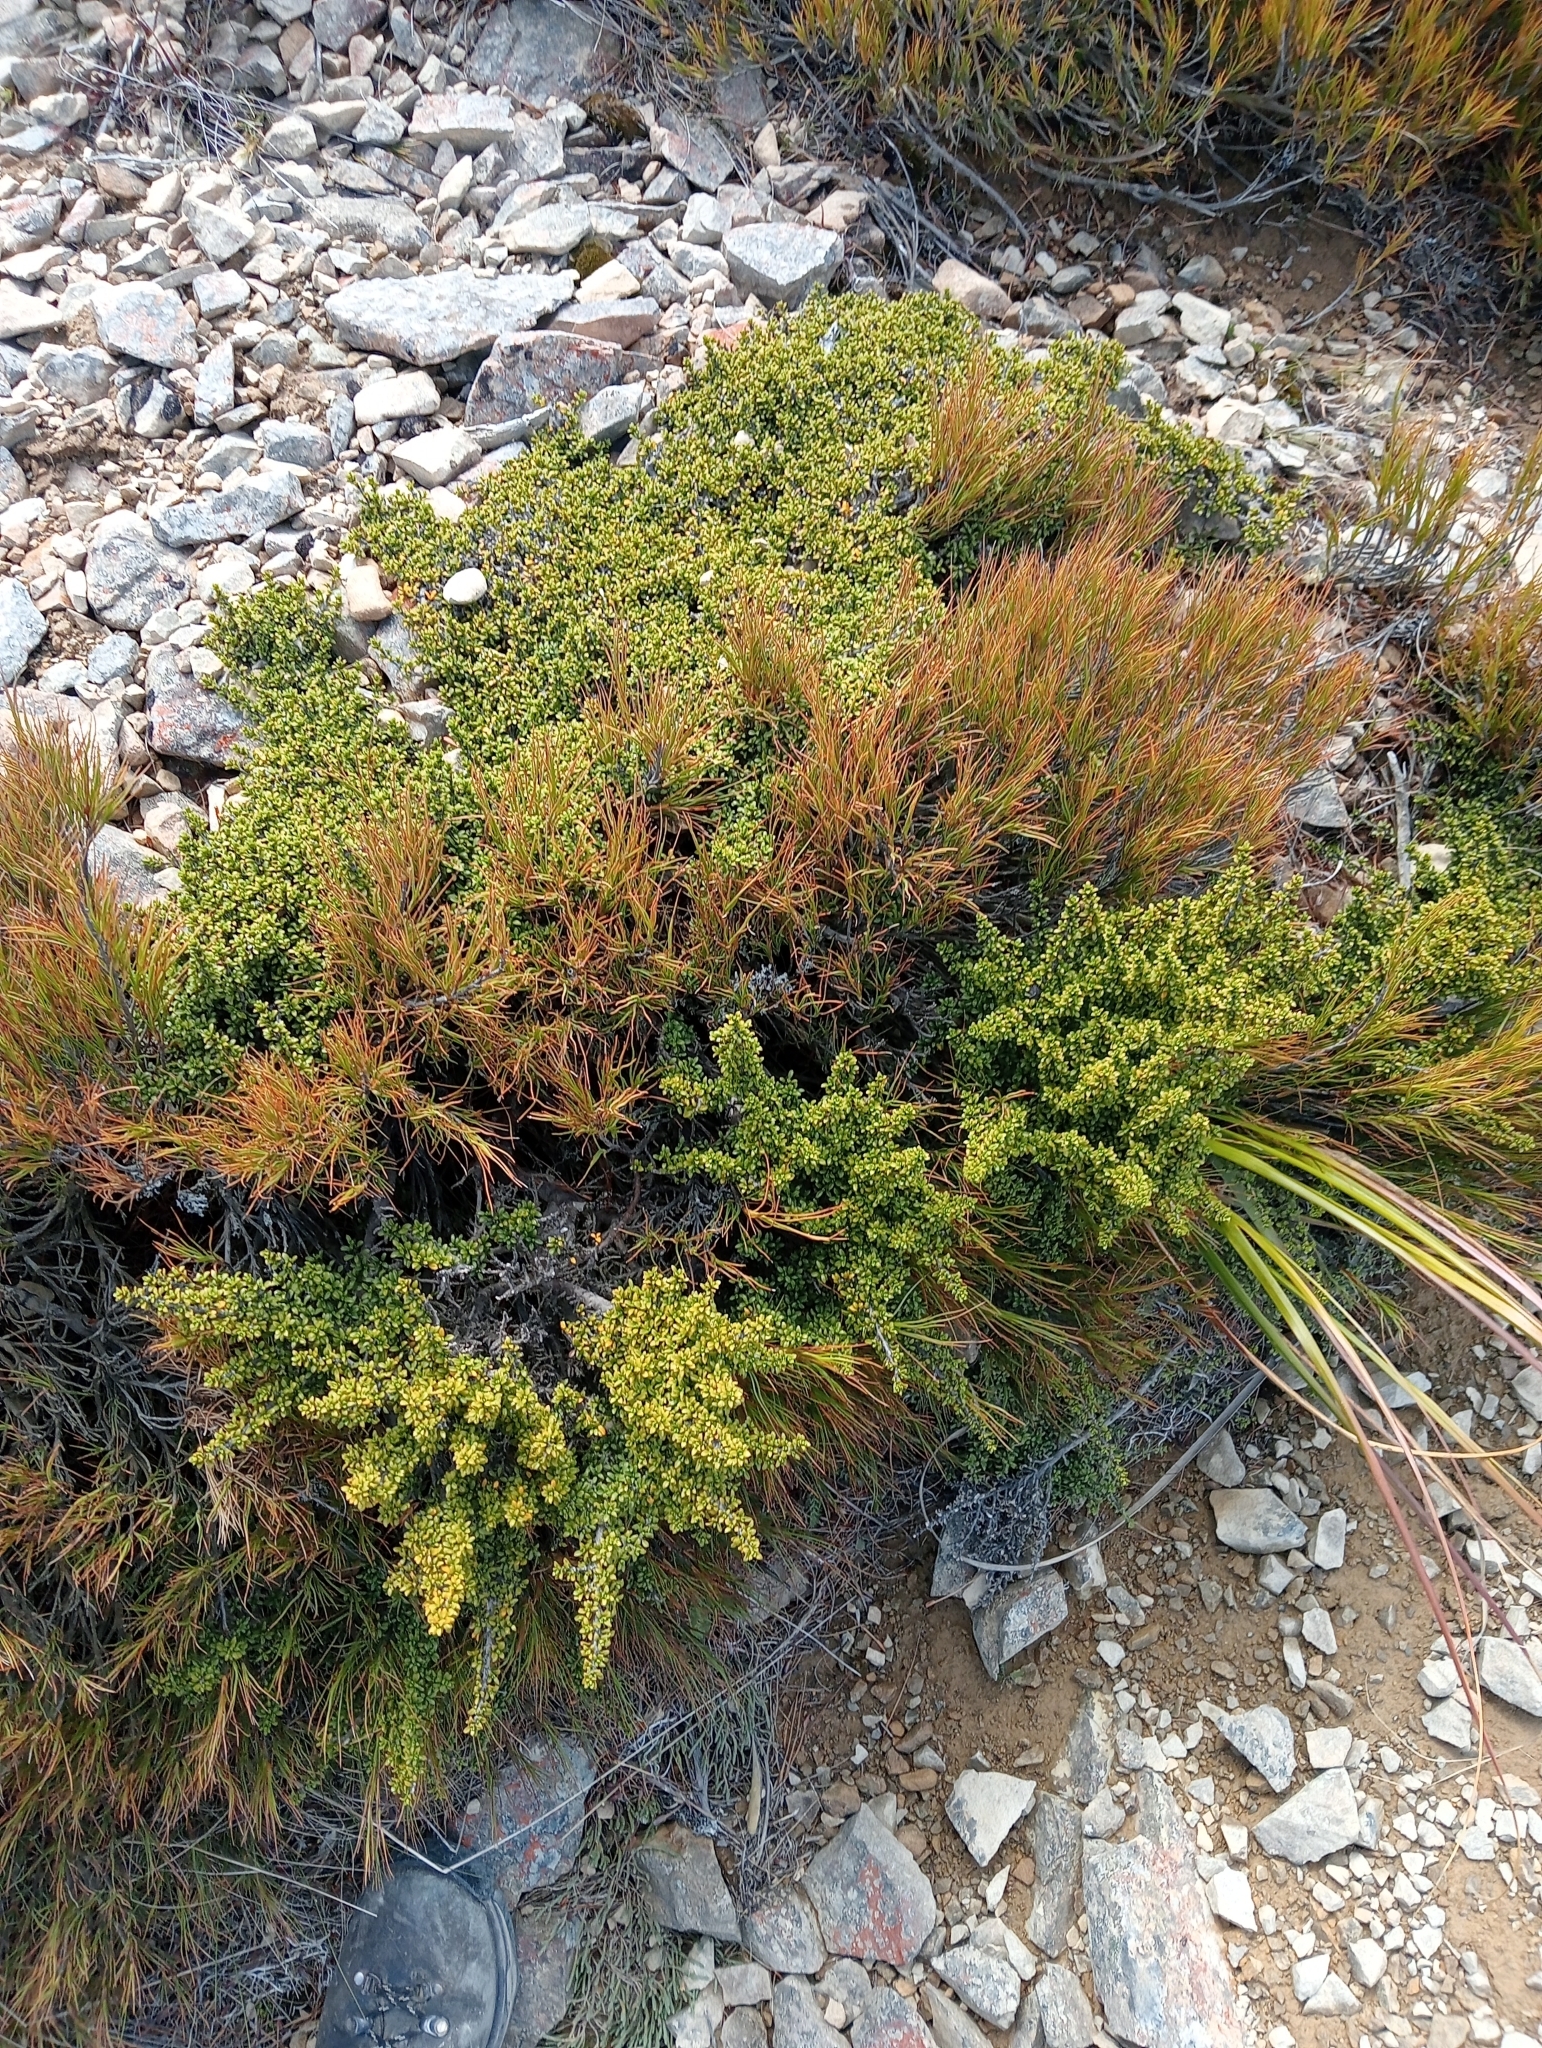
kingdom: Plantae
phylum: Tracheophyta
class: Magnoliopsida
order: Gentianales
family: Rubiaceae
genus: Coprosma
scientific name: Coprosma fowerakeri
